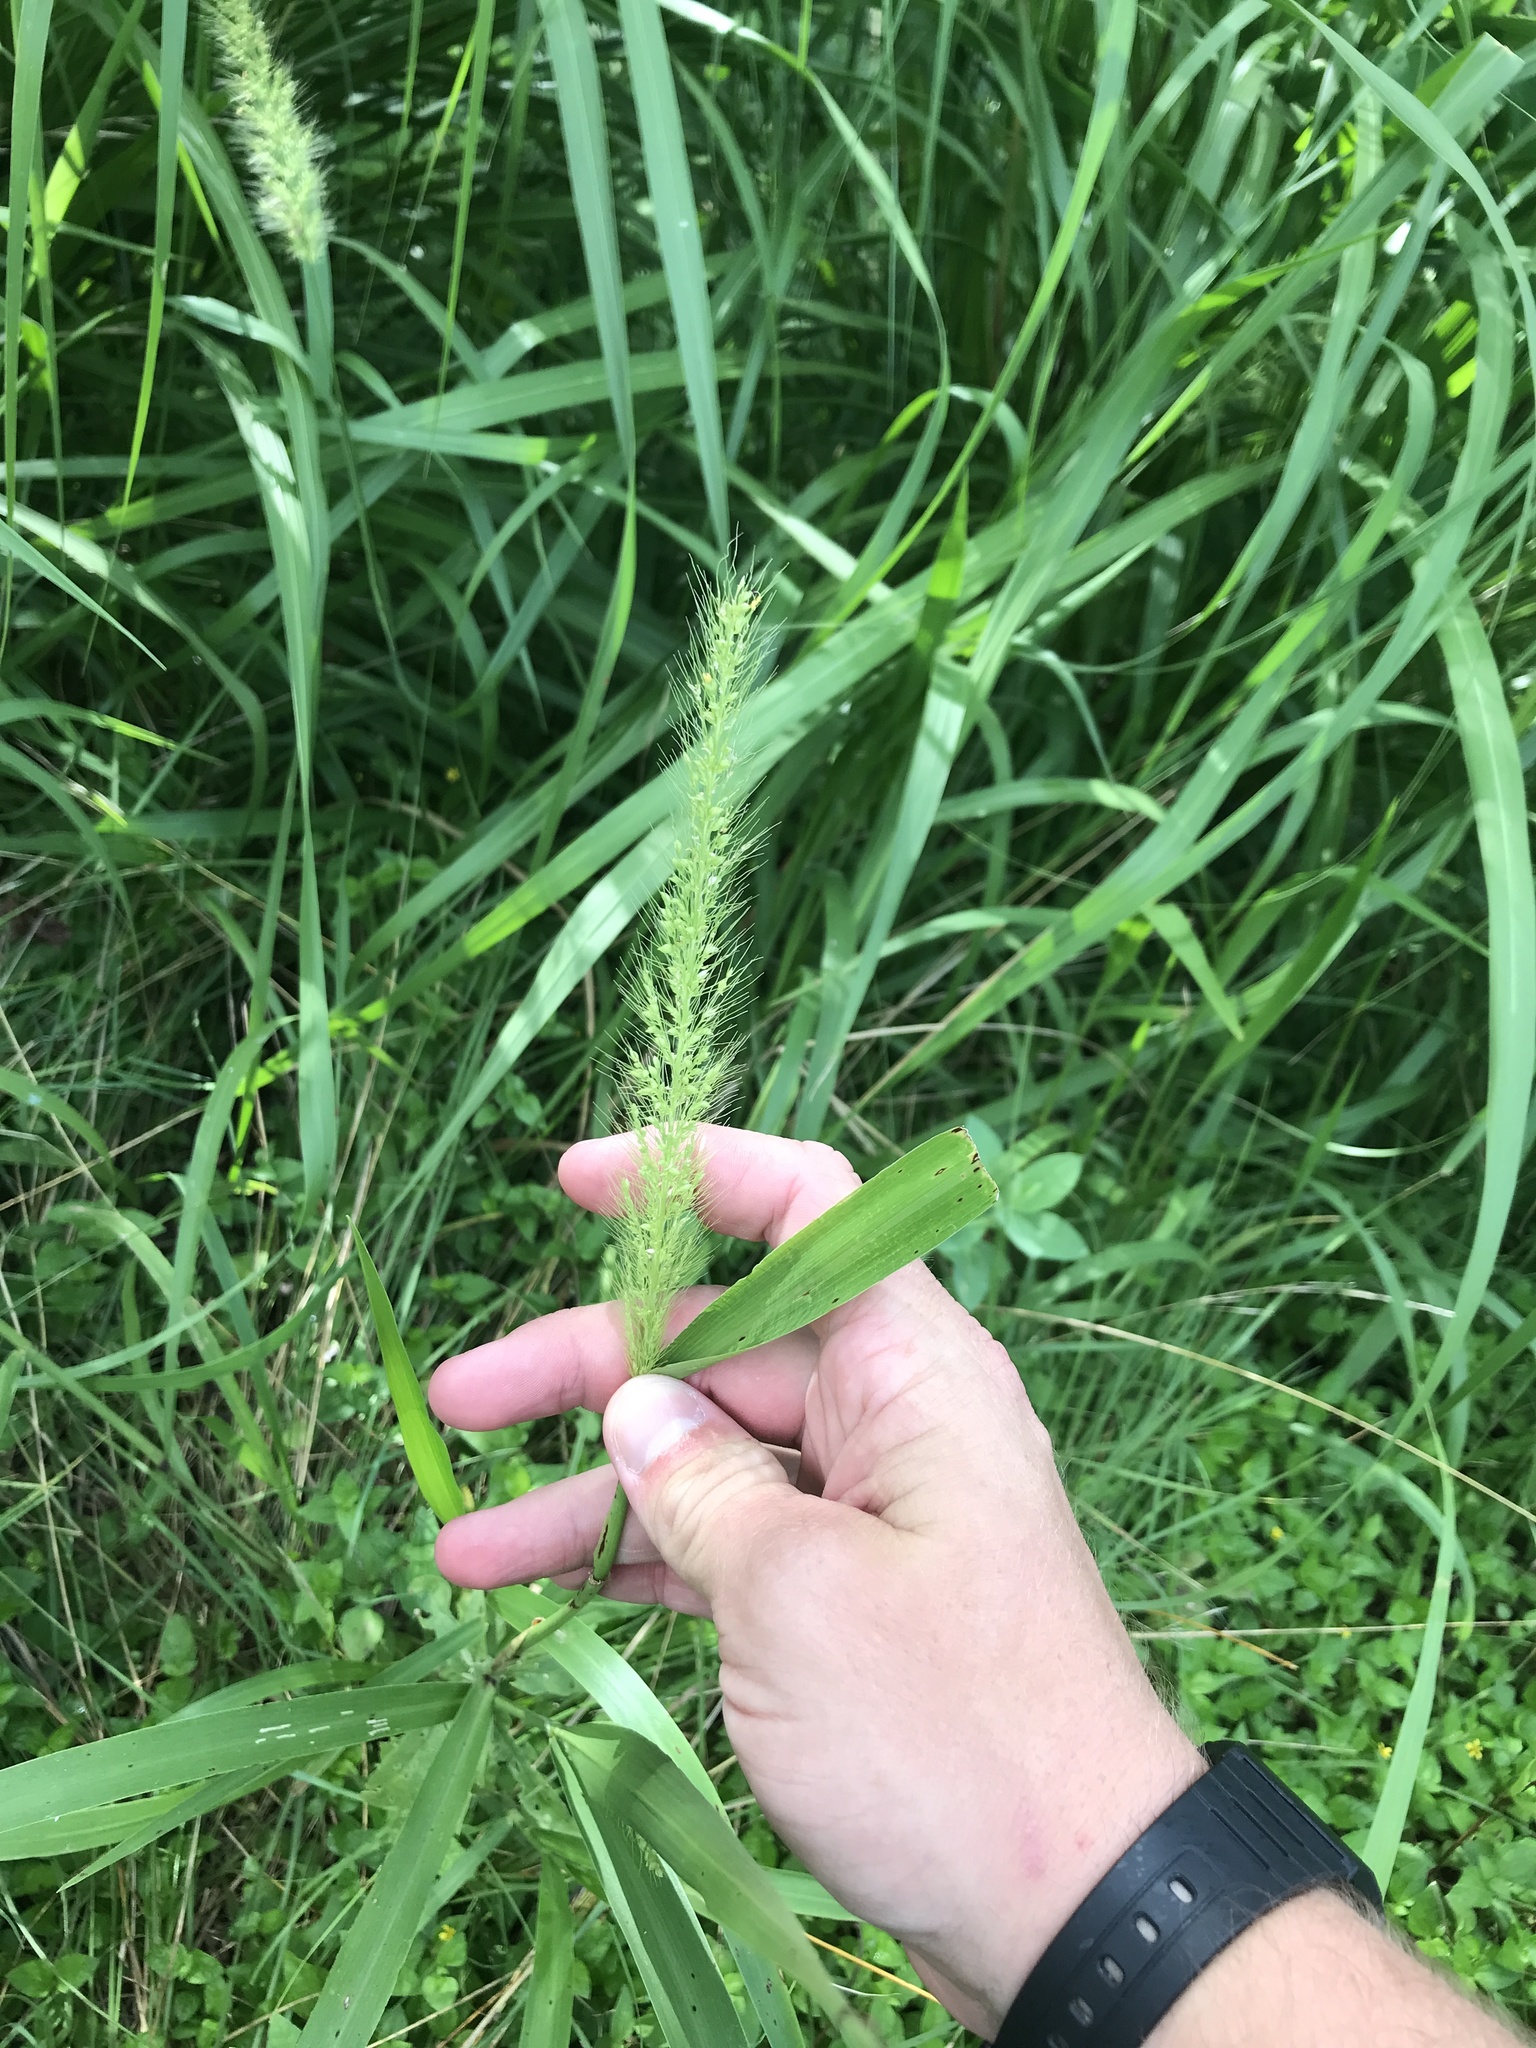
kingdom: Plantae
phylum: Tracheophyta
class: Liliopsida
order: Poales
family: Poaceae
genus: Setaria
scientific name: Setaria scheelei
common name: Southwestern bristle grass
